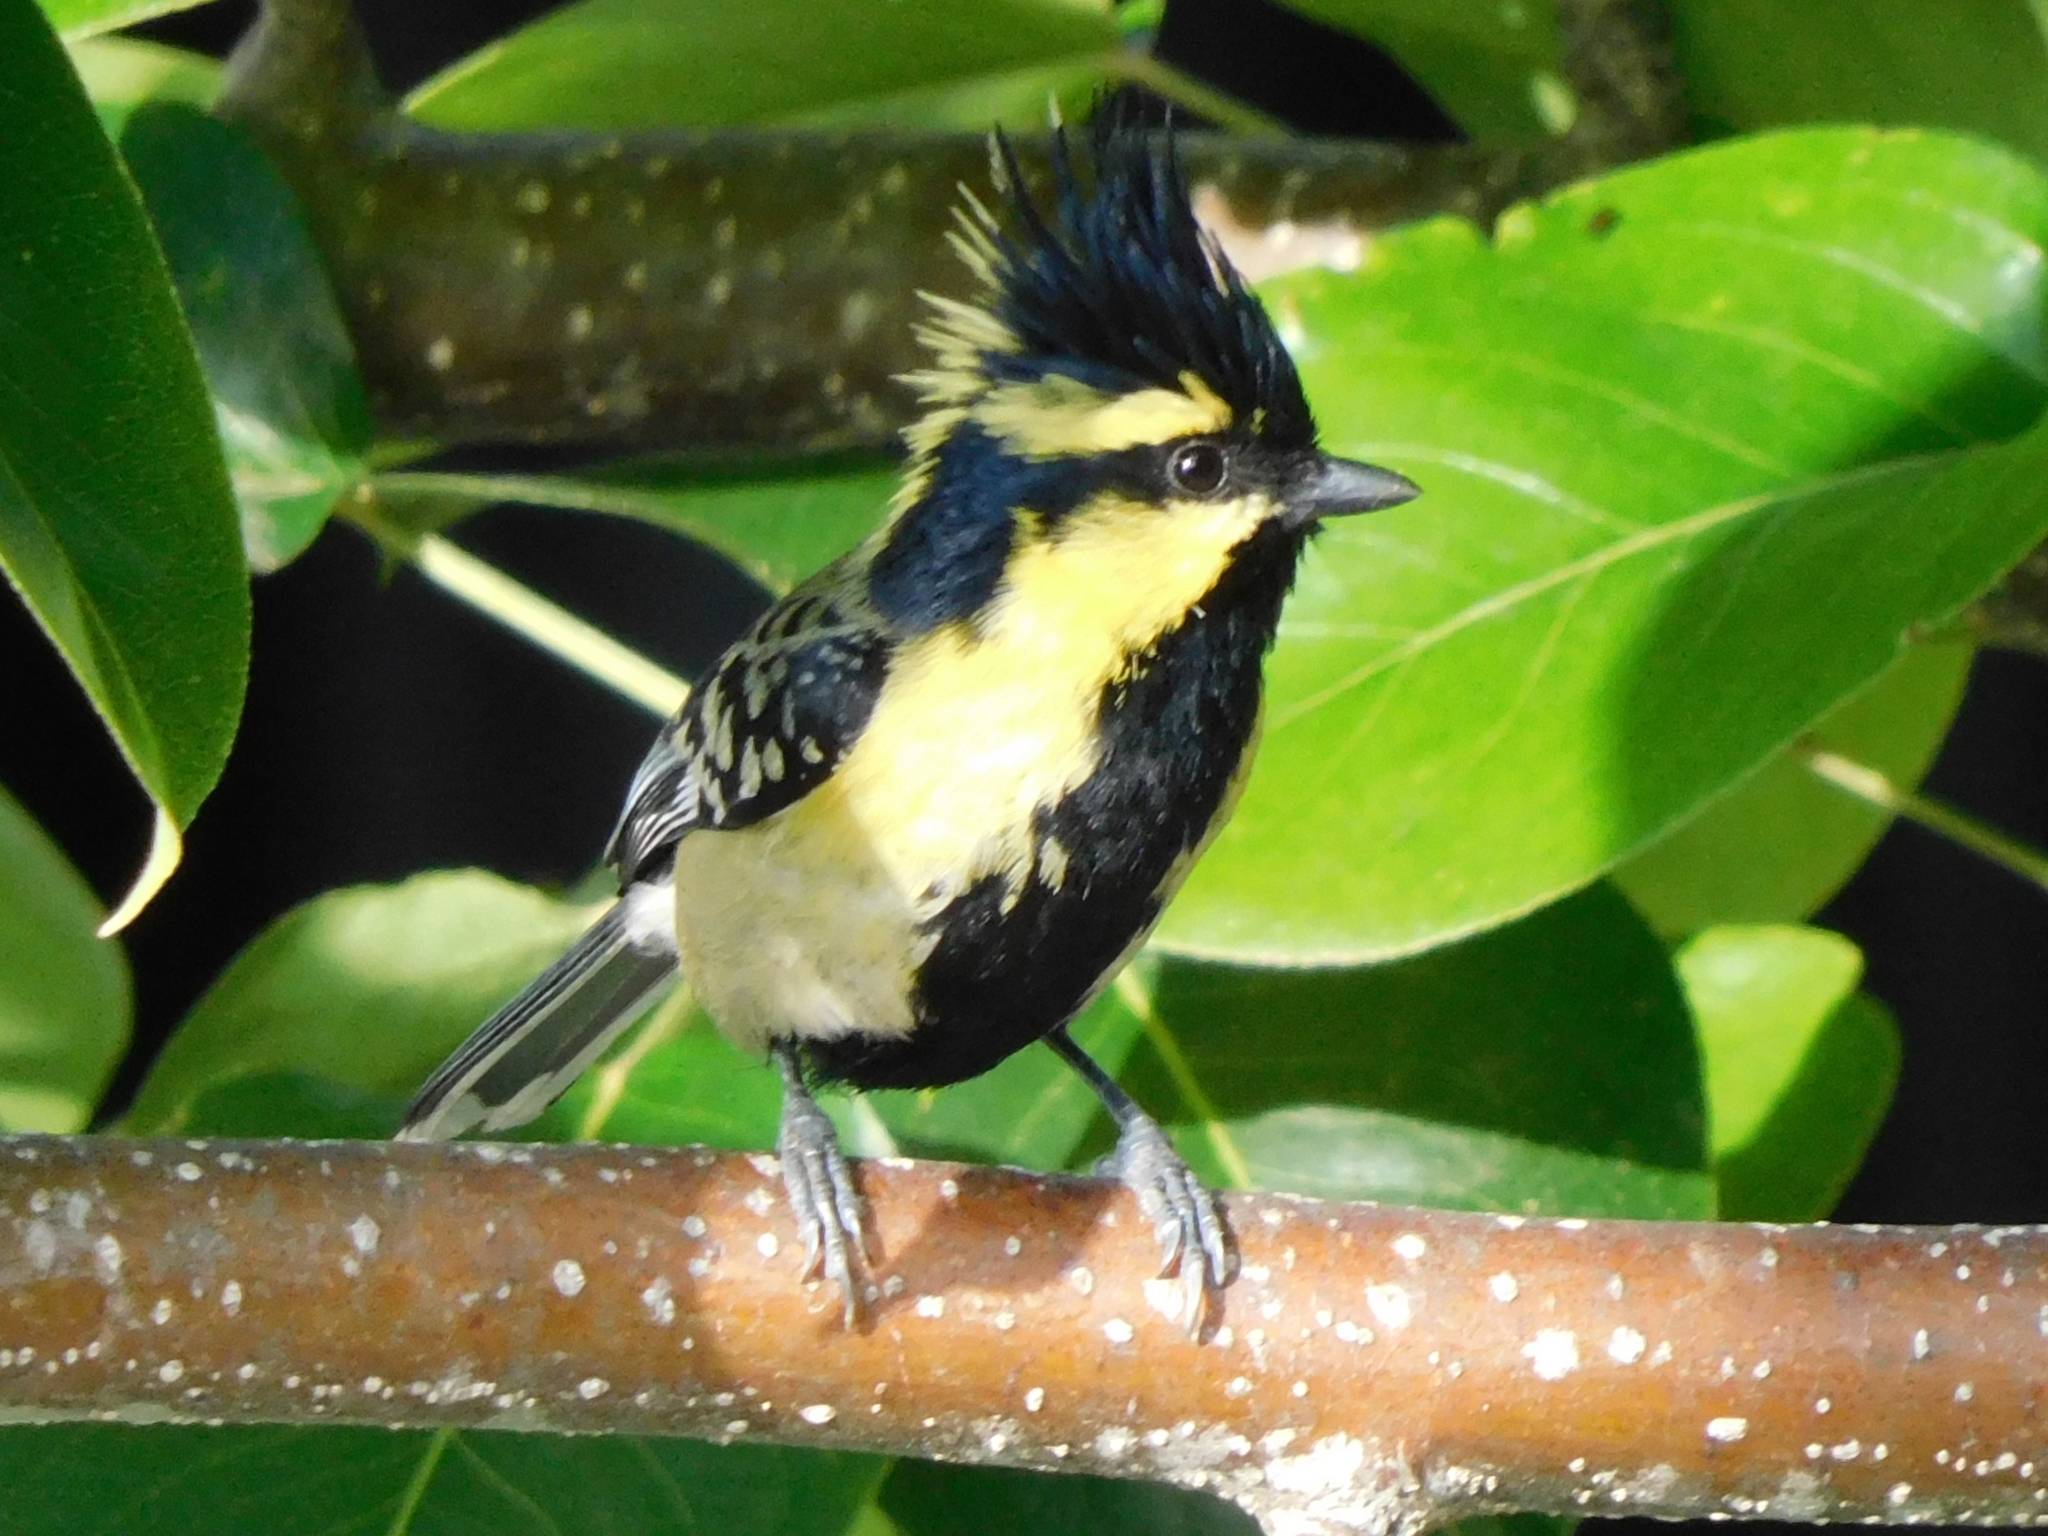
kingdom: Animalia
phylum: Chordata
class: Aves
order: Passeriformes
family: Paridae
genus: Parus
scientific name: Parus xanthogenys
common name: Black-lored tit
